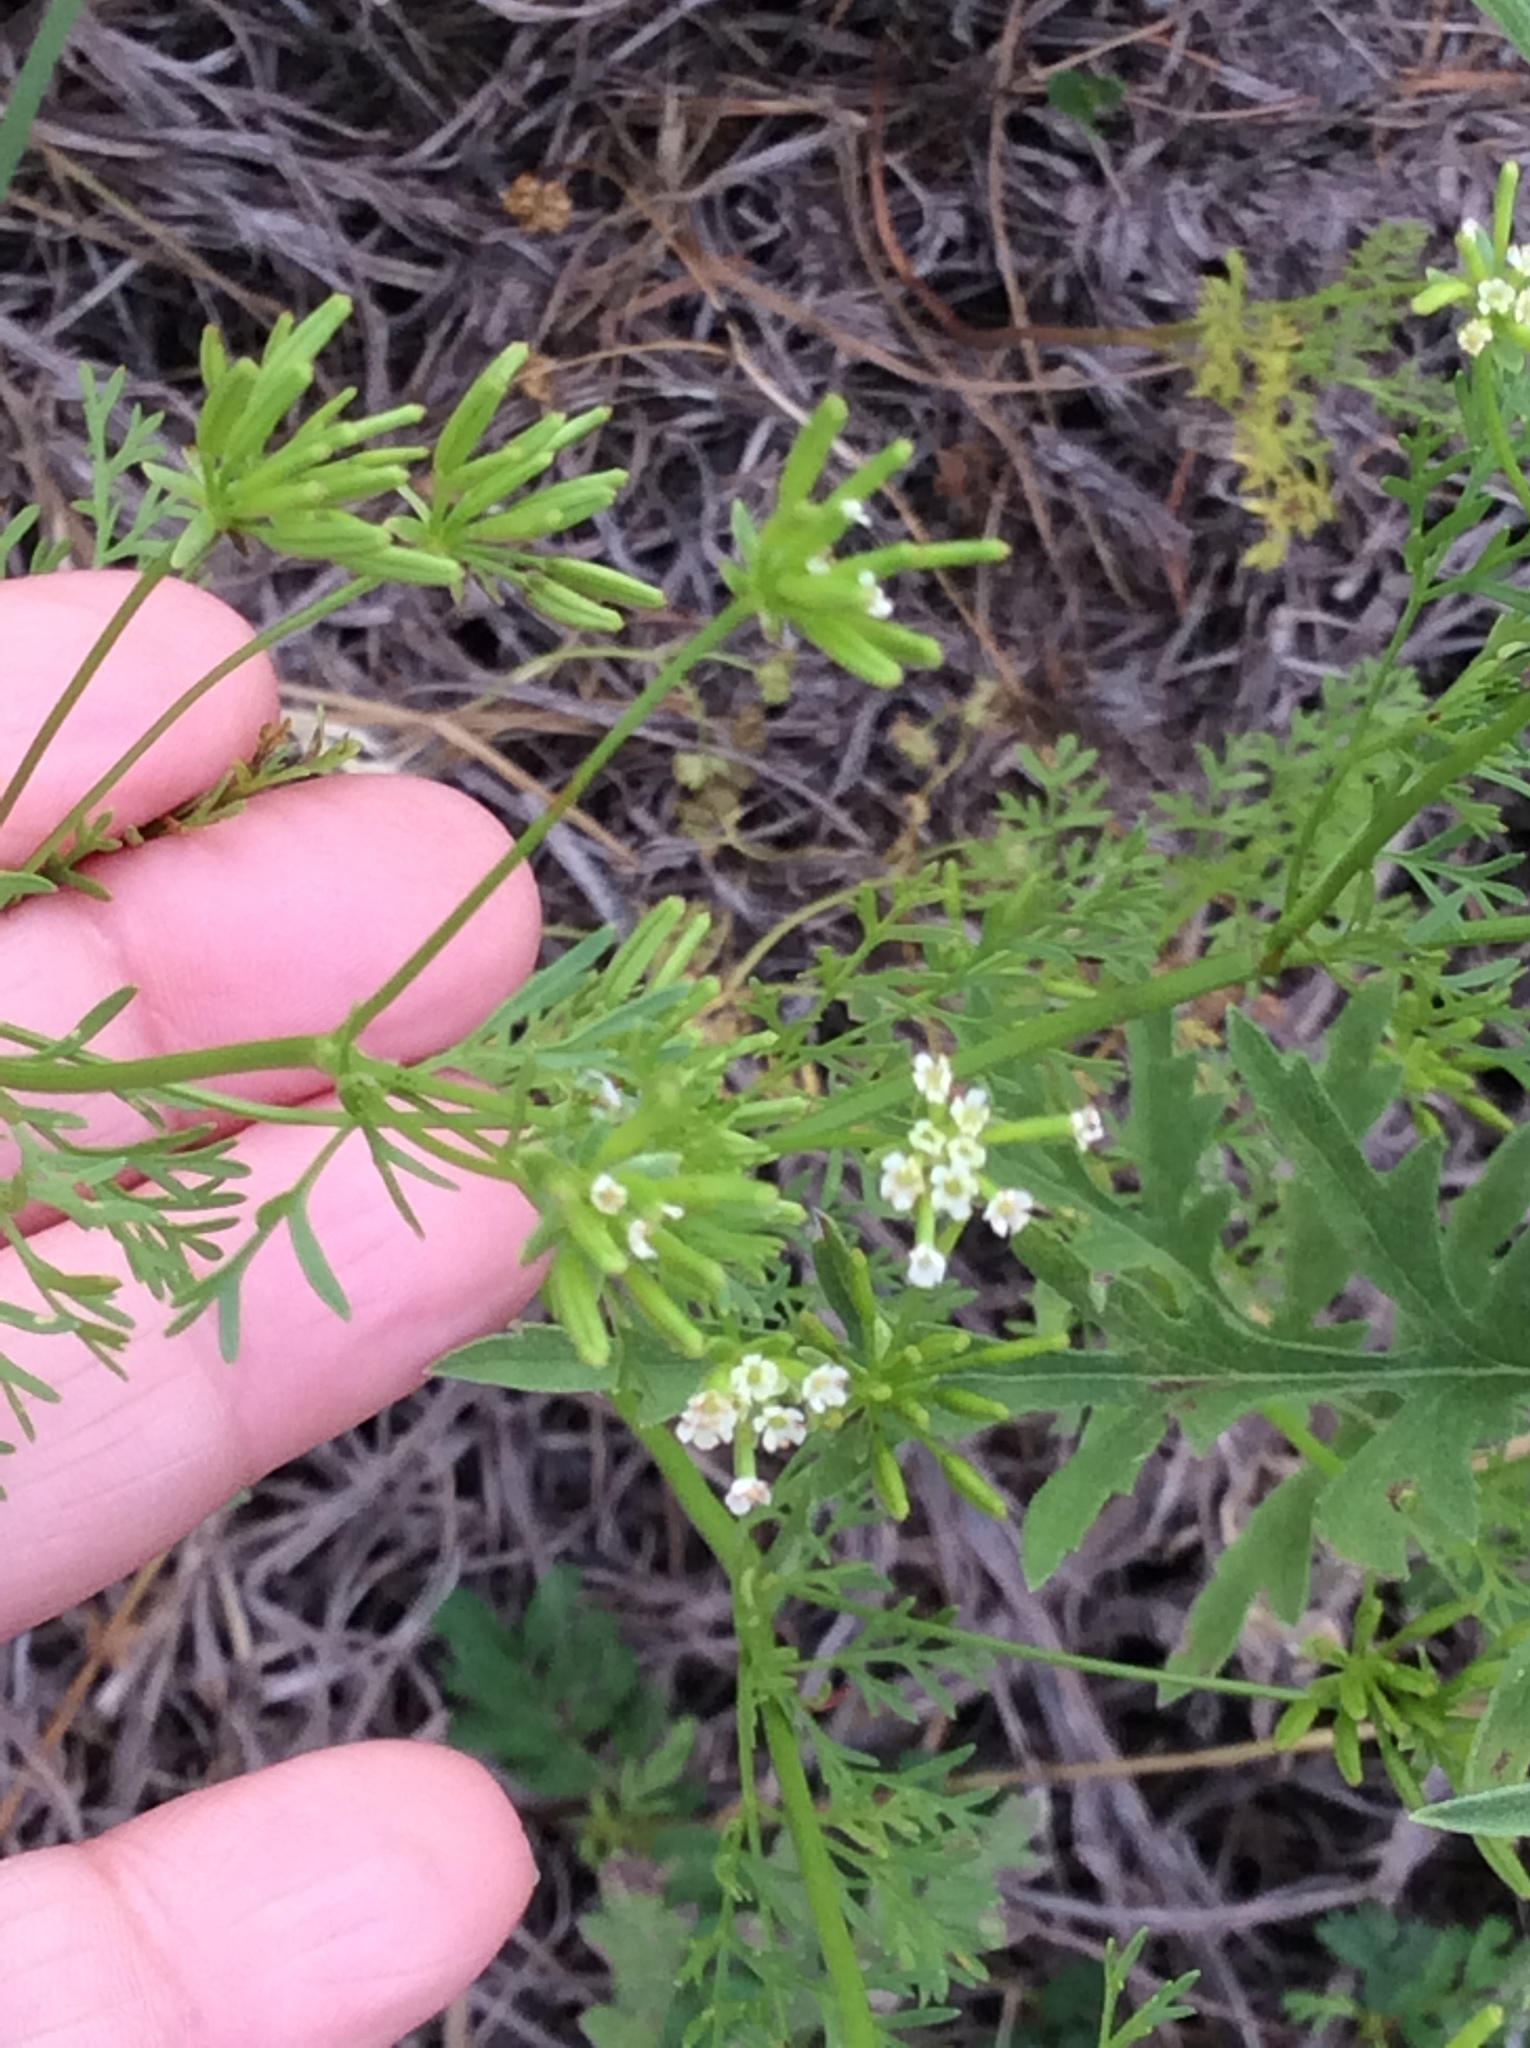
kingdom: Plantae
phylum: Tracheophyta
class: Magnoliopsida
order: Apiales
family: Apiaceae
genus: Chaerophyllum
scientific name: Chaerophyllum tainturieri
